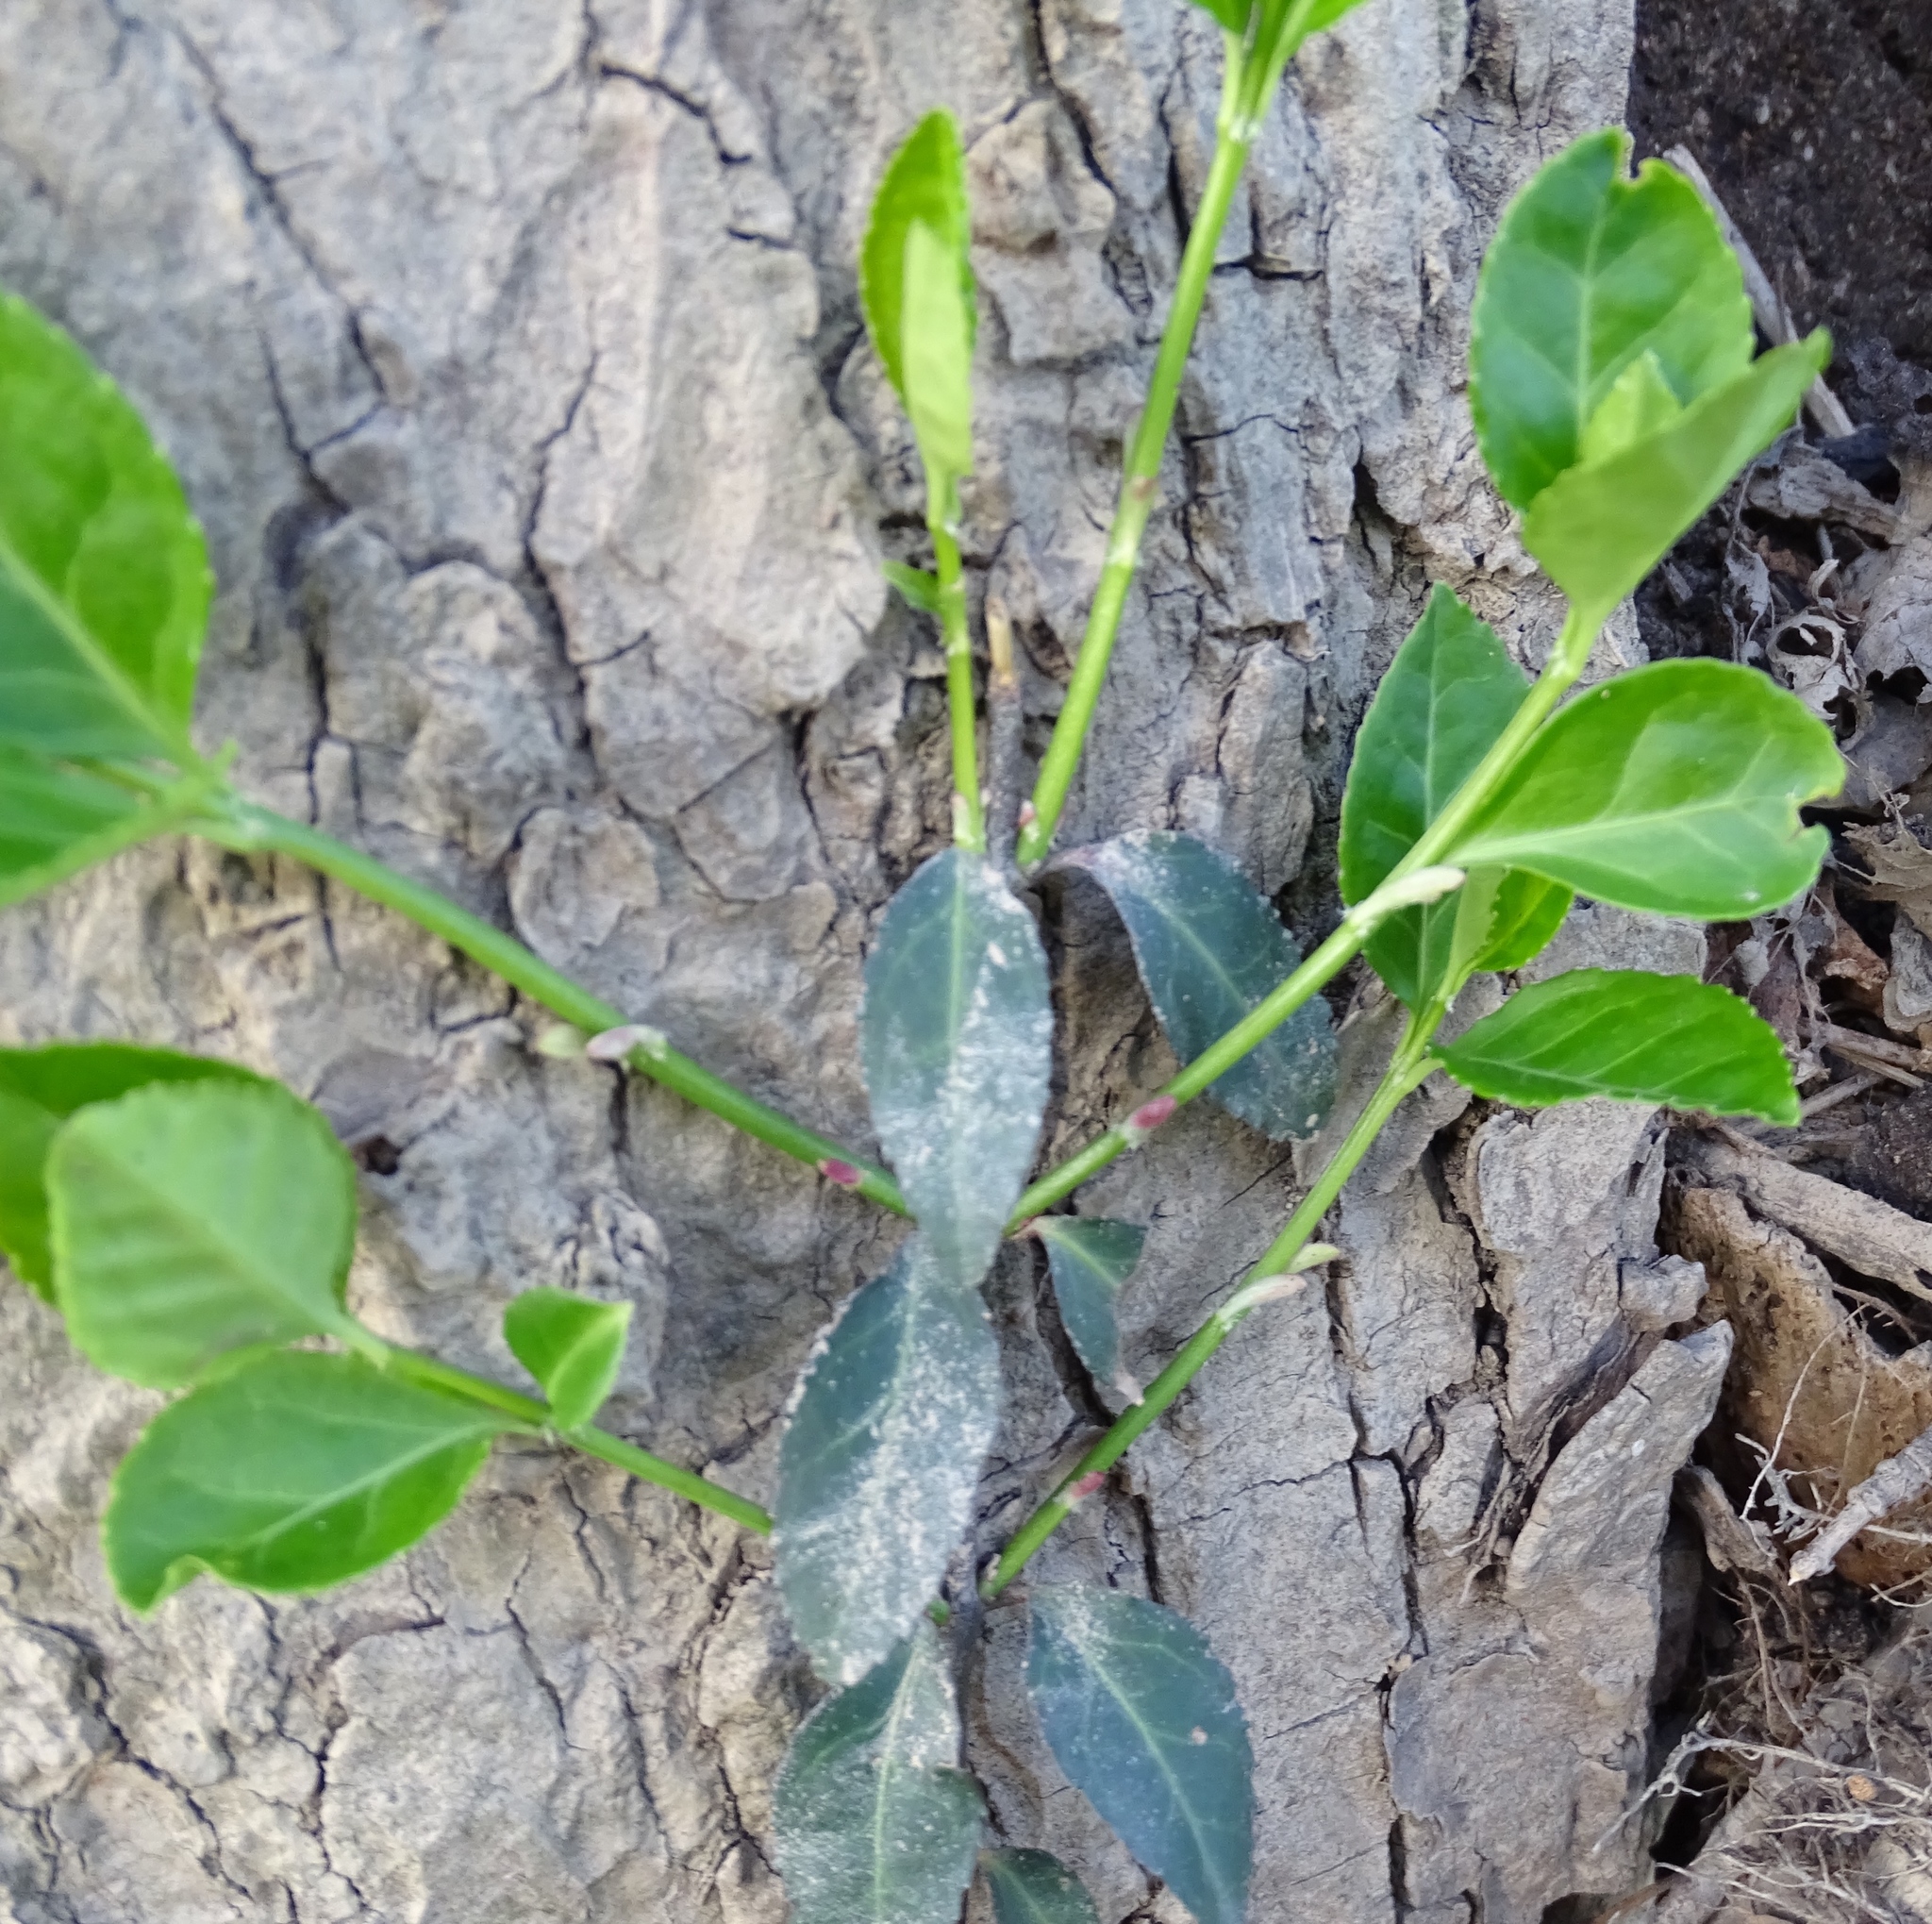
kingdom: Plantae
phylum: Tracheophyta
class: Magnoliopsida
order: Celastrales
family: Celastraceae
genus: Euonymus
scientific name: Euonymus fortunei
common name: Climbing euonymus
